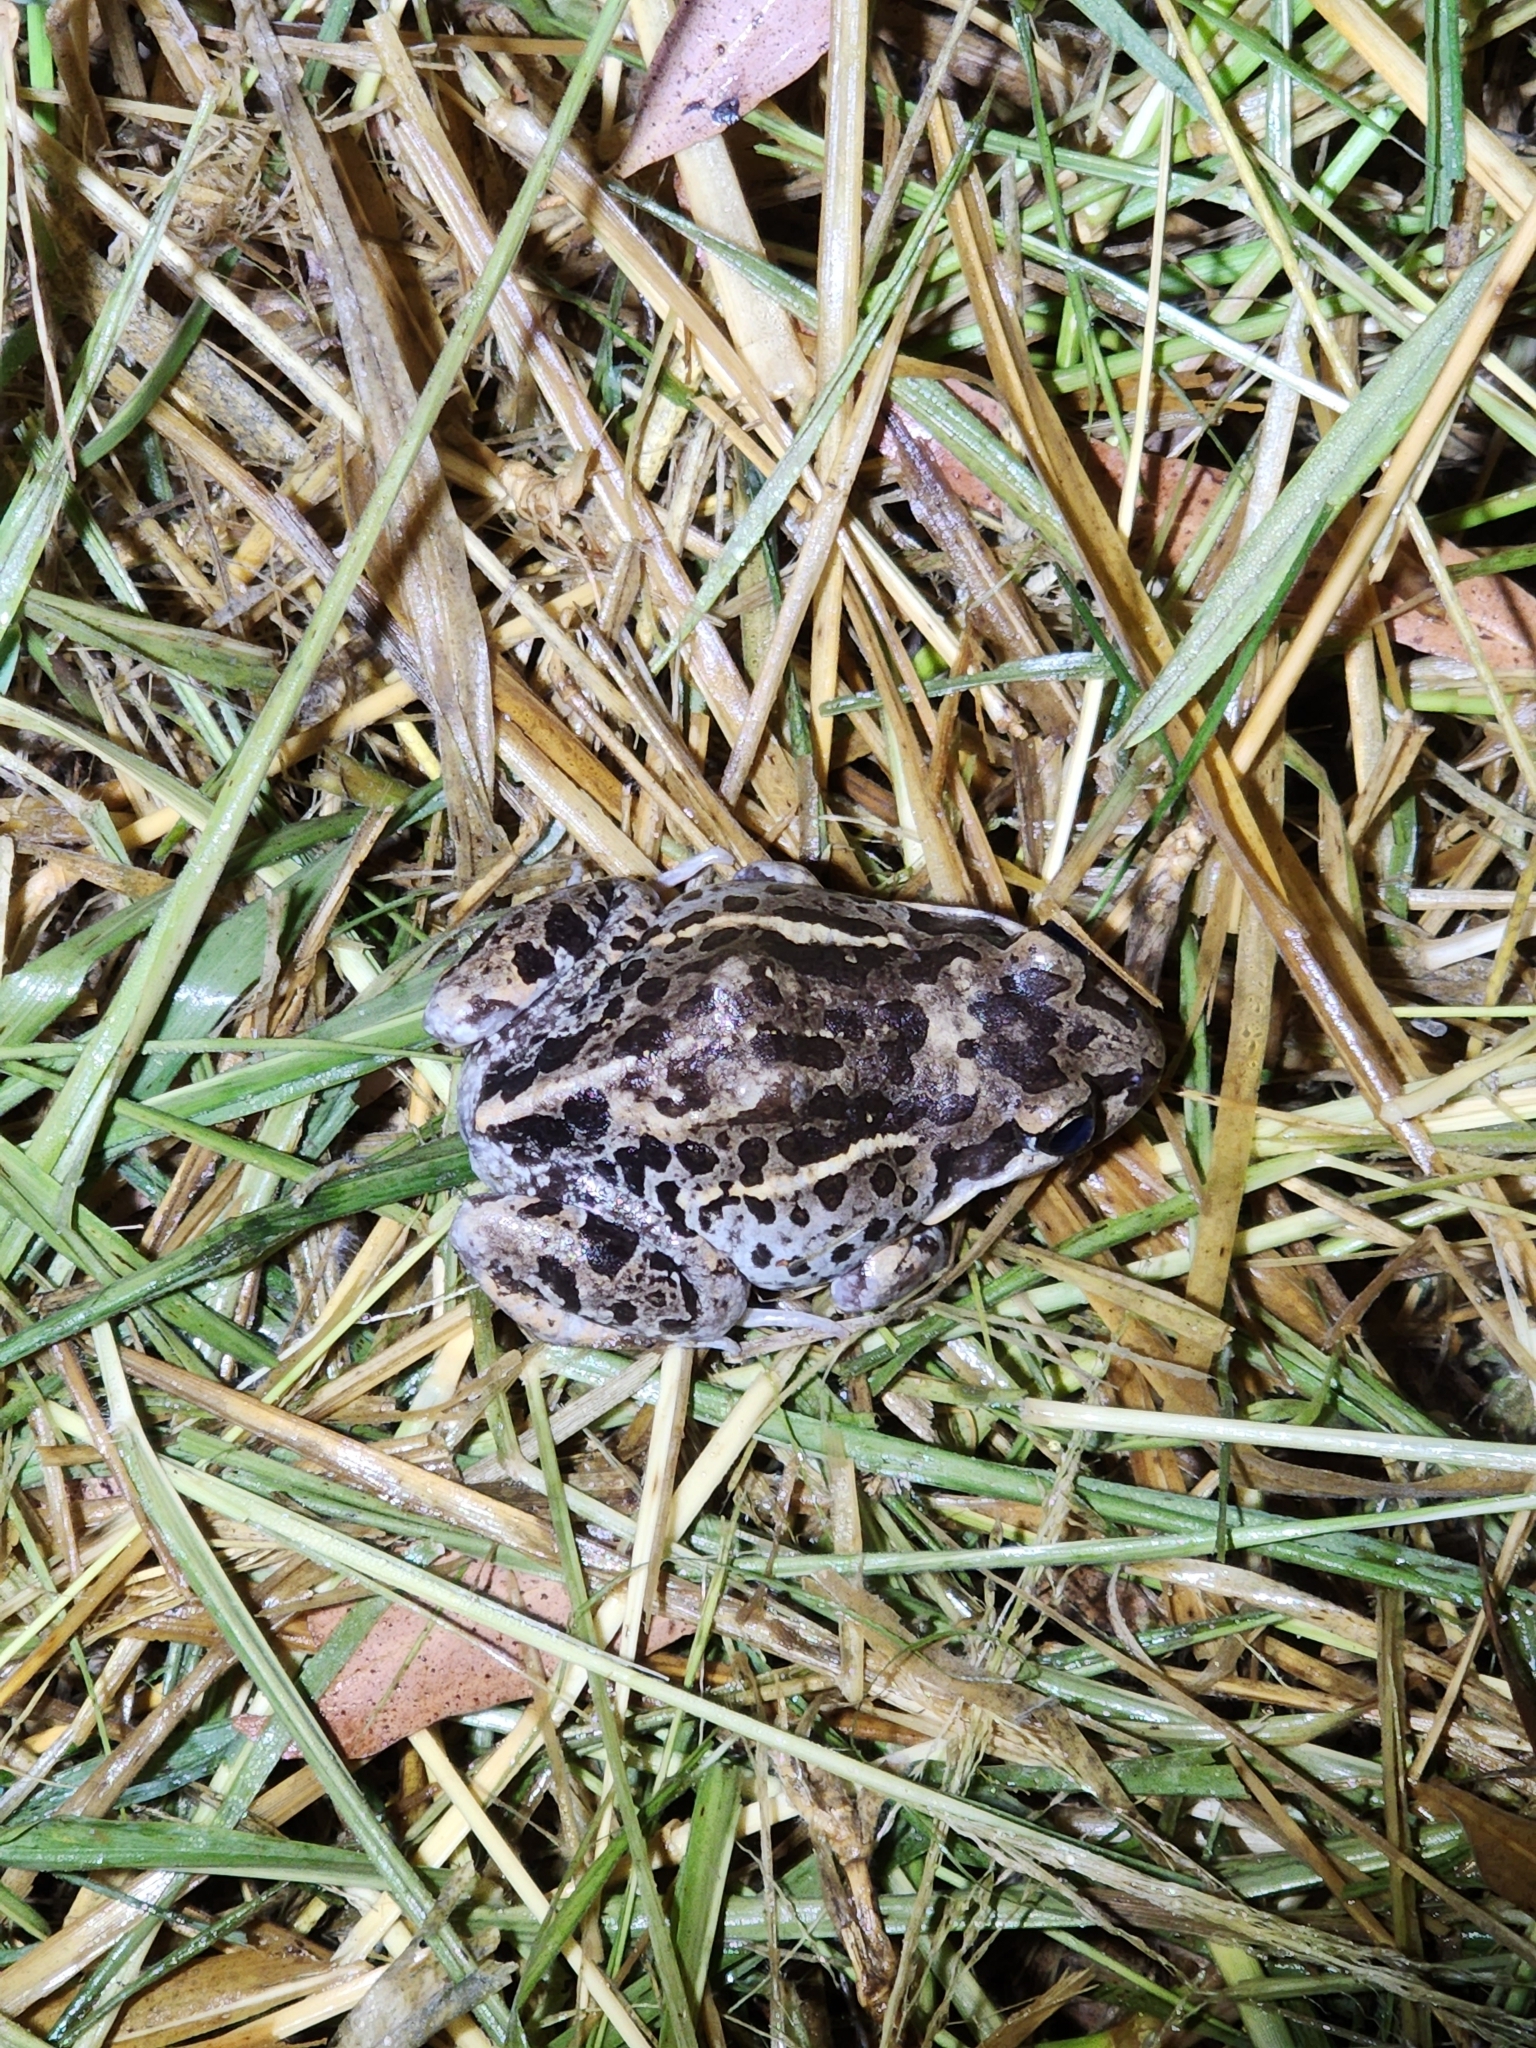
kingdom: Animalia
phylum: Chordata
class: Amphibia
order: Anura
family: Limnodynastidae
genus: Limnodynastes
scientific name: Limnodynastes salmini
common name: Salmon-striped frog
